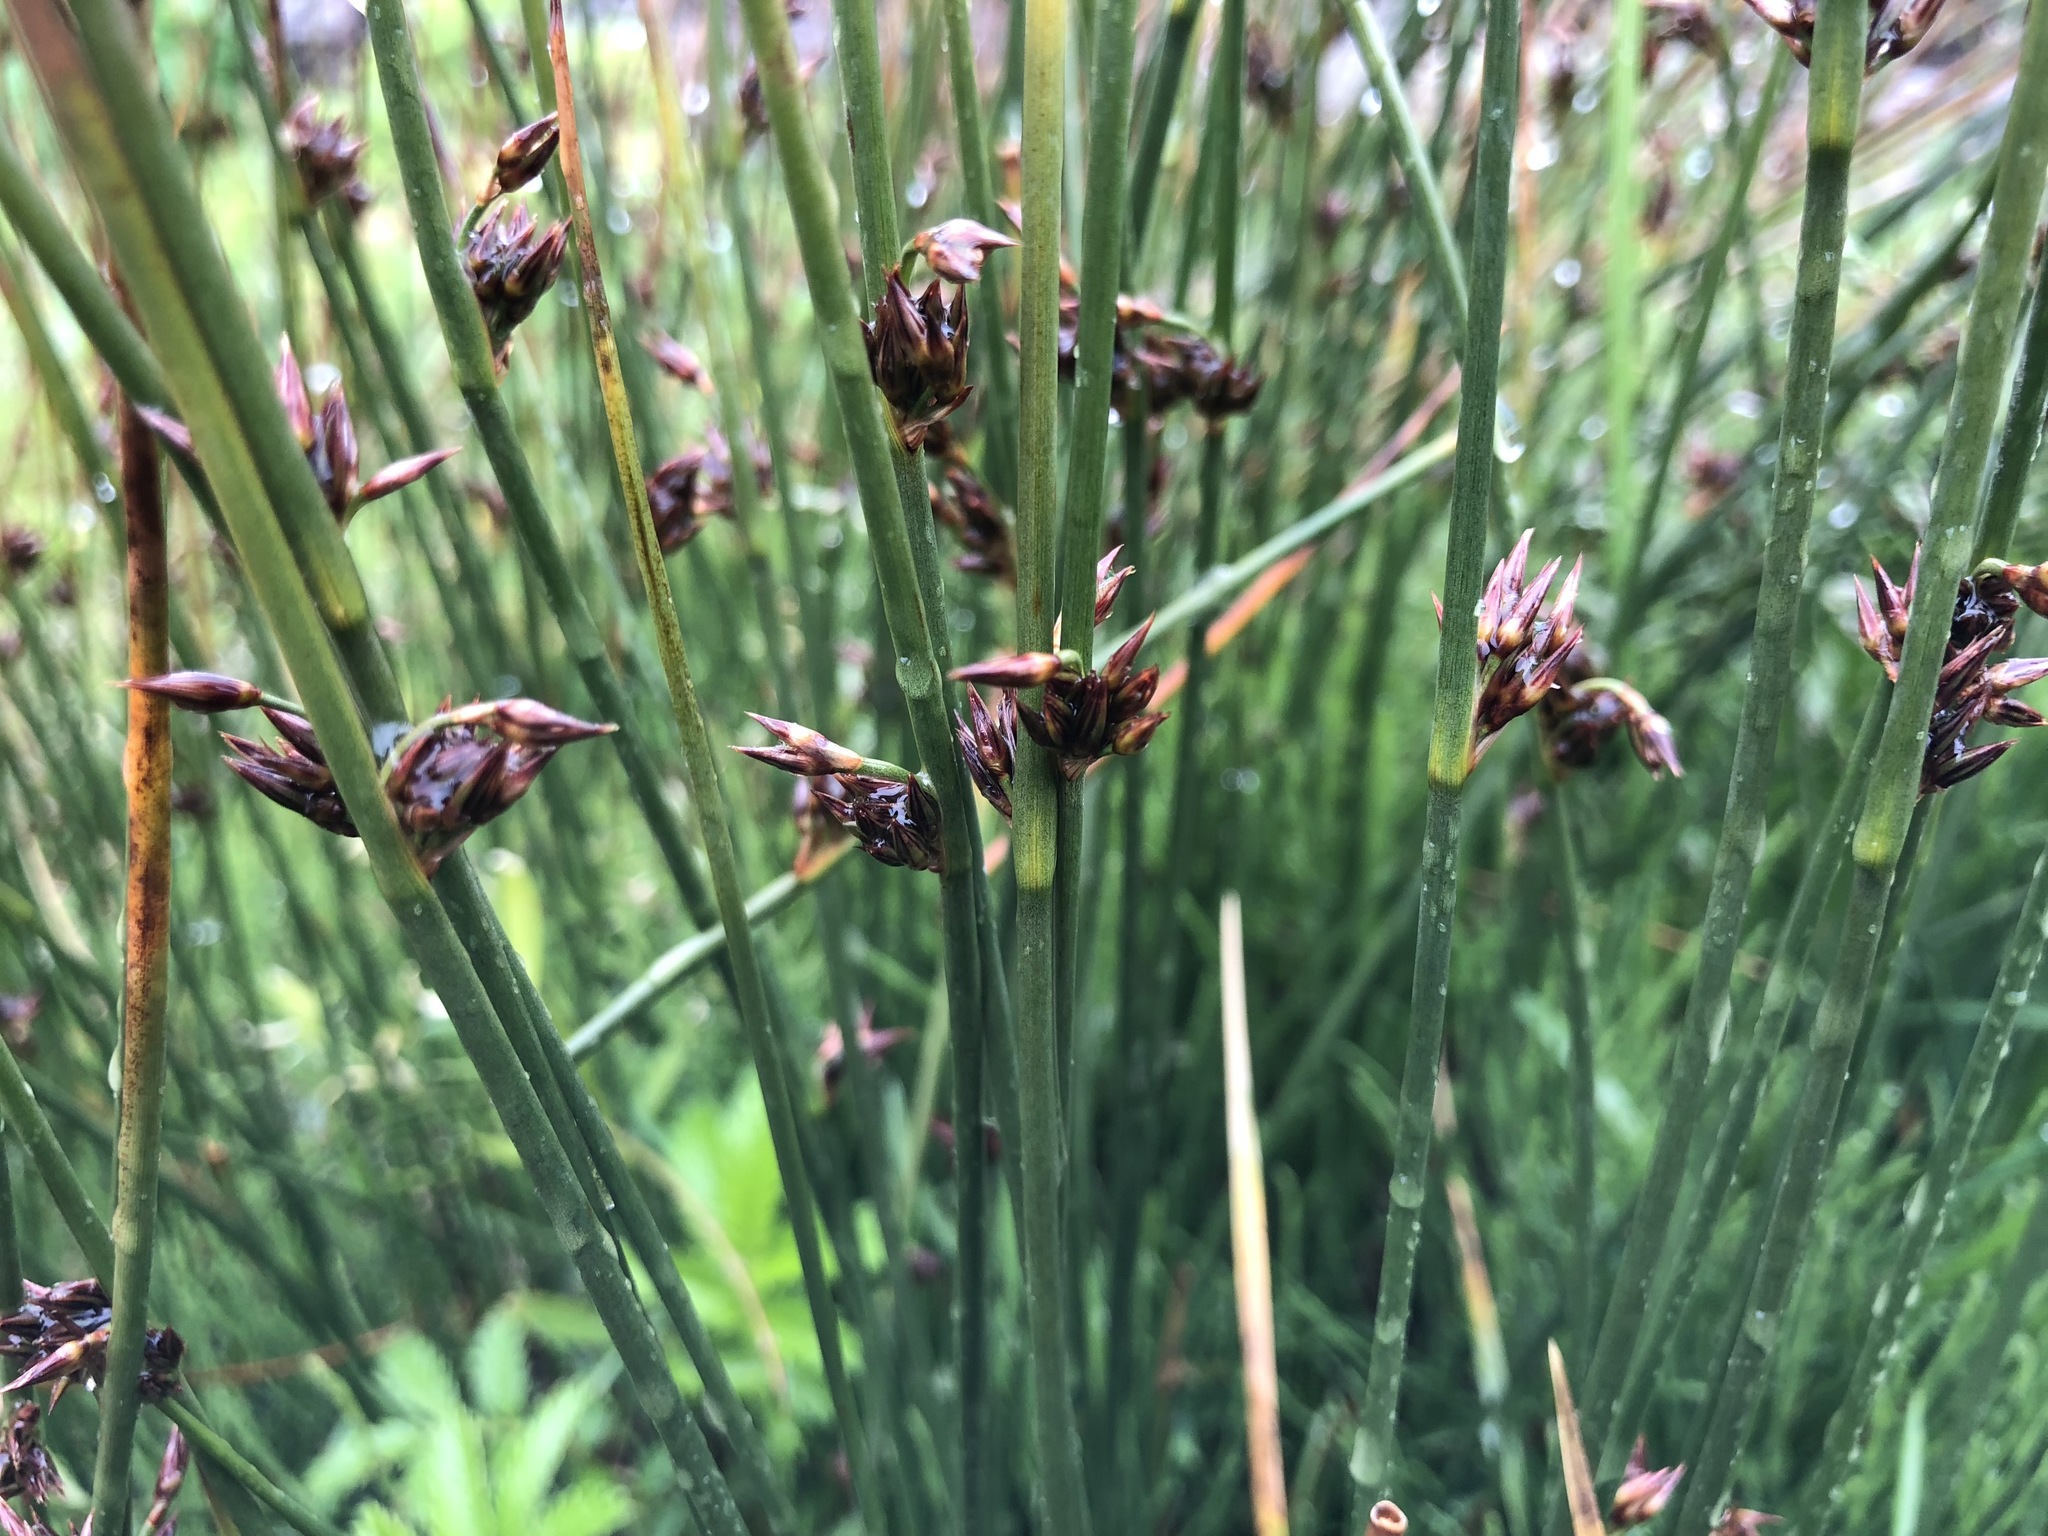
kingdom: Plantae
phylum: Tracheophyta
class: Liliopsida
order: Poales
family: Juncaceae
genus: Juncus
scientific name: Juncus arcticus
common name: Arctic rush
